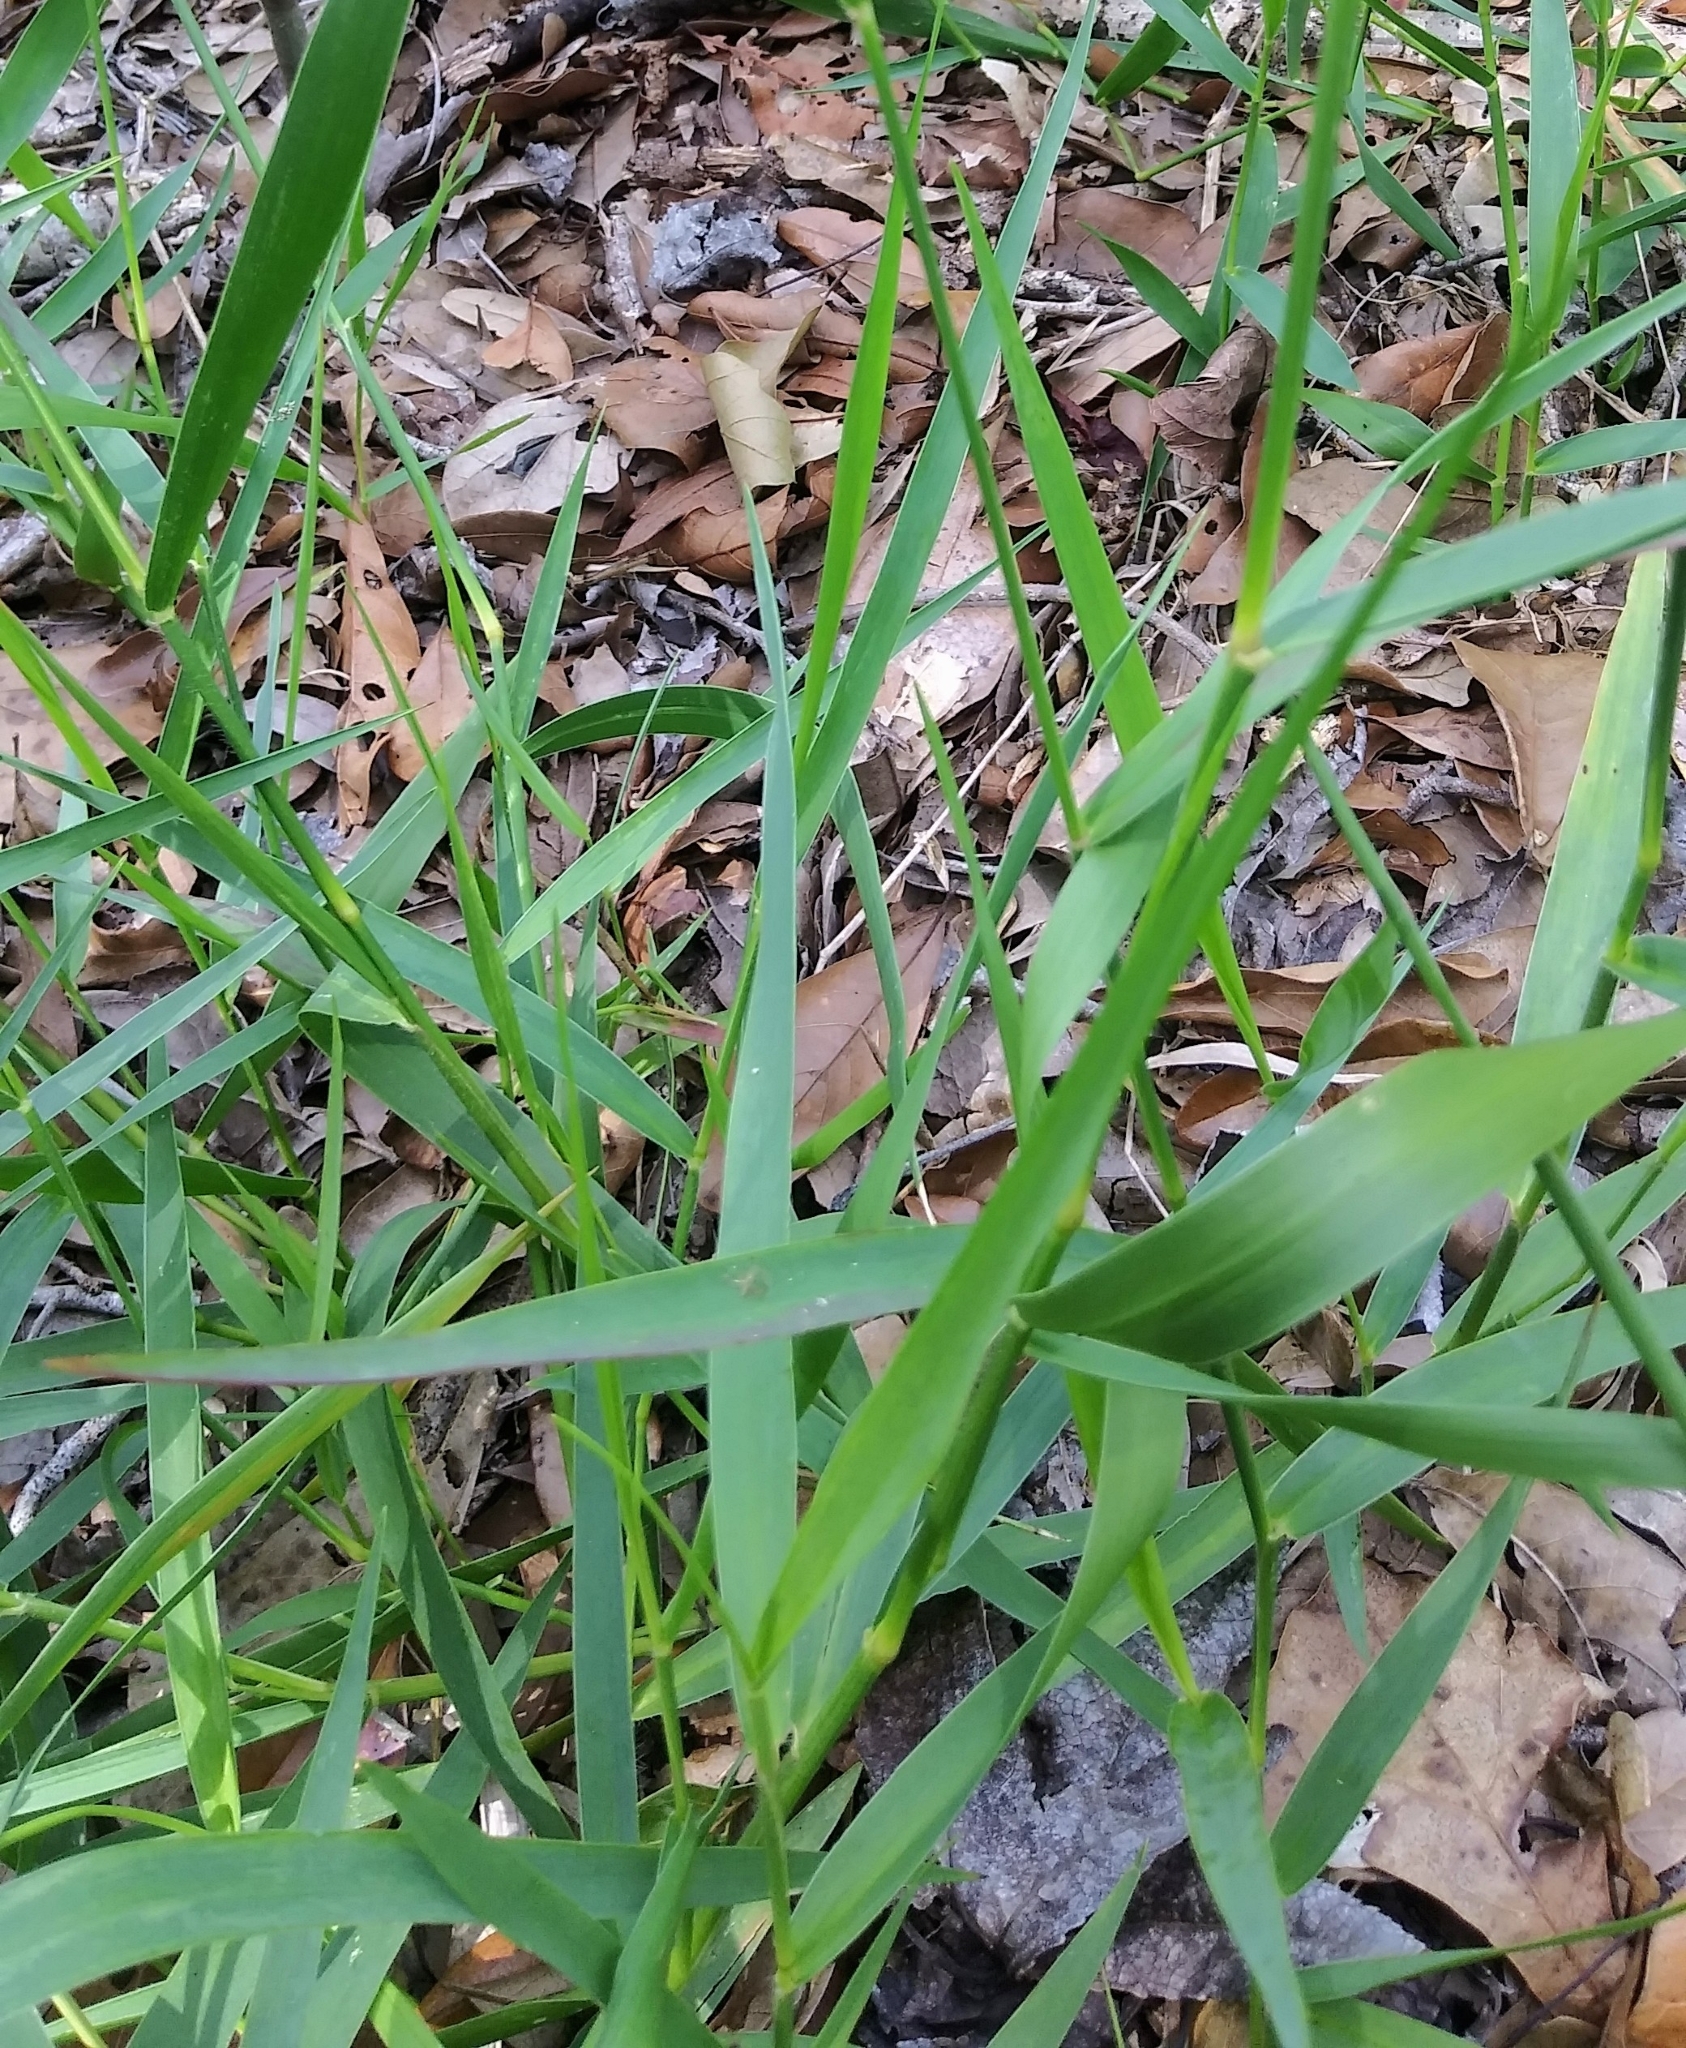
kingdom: Plantae
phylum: Tracheophyta
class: Liliopsida
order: Poales
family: Poaceae
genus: Lolium
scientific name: Lolium arundinaceum
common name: Reed fescue
